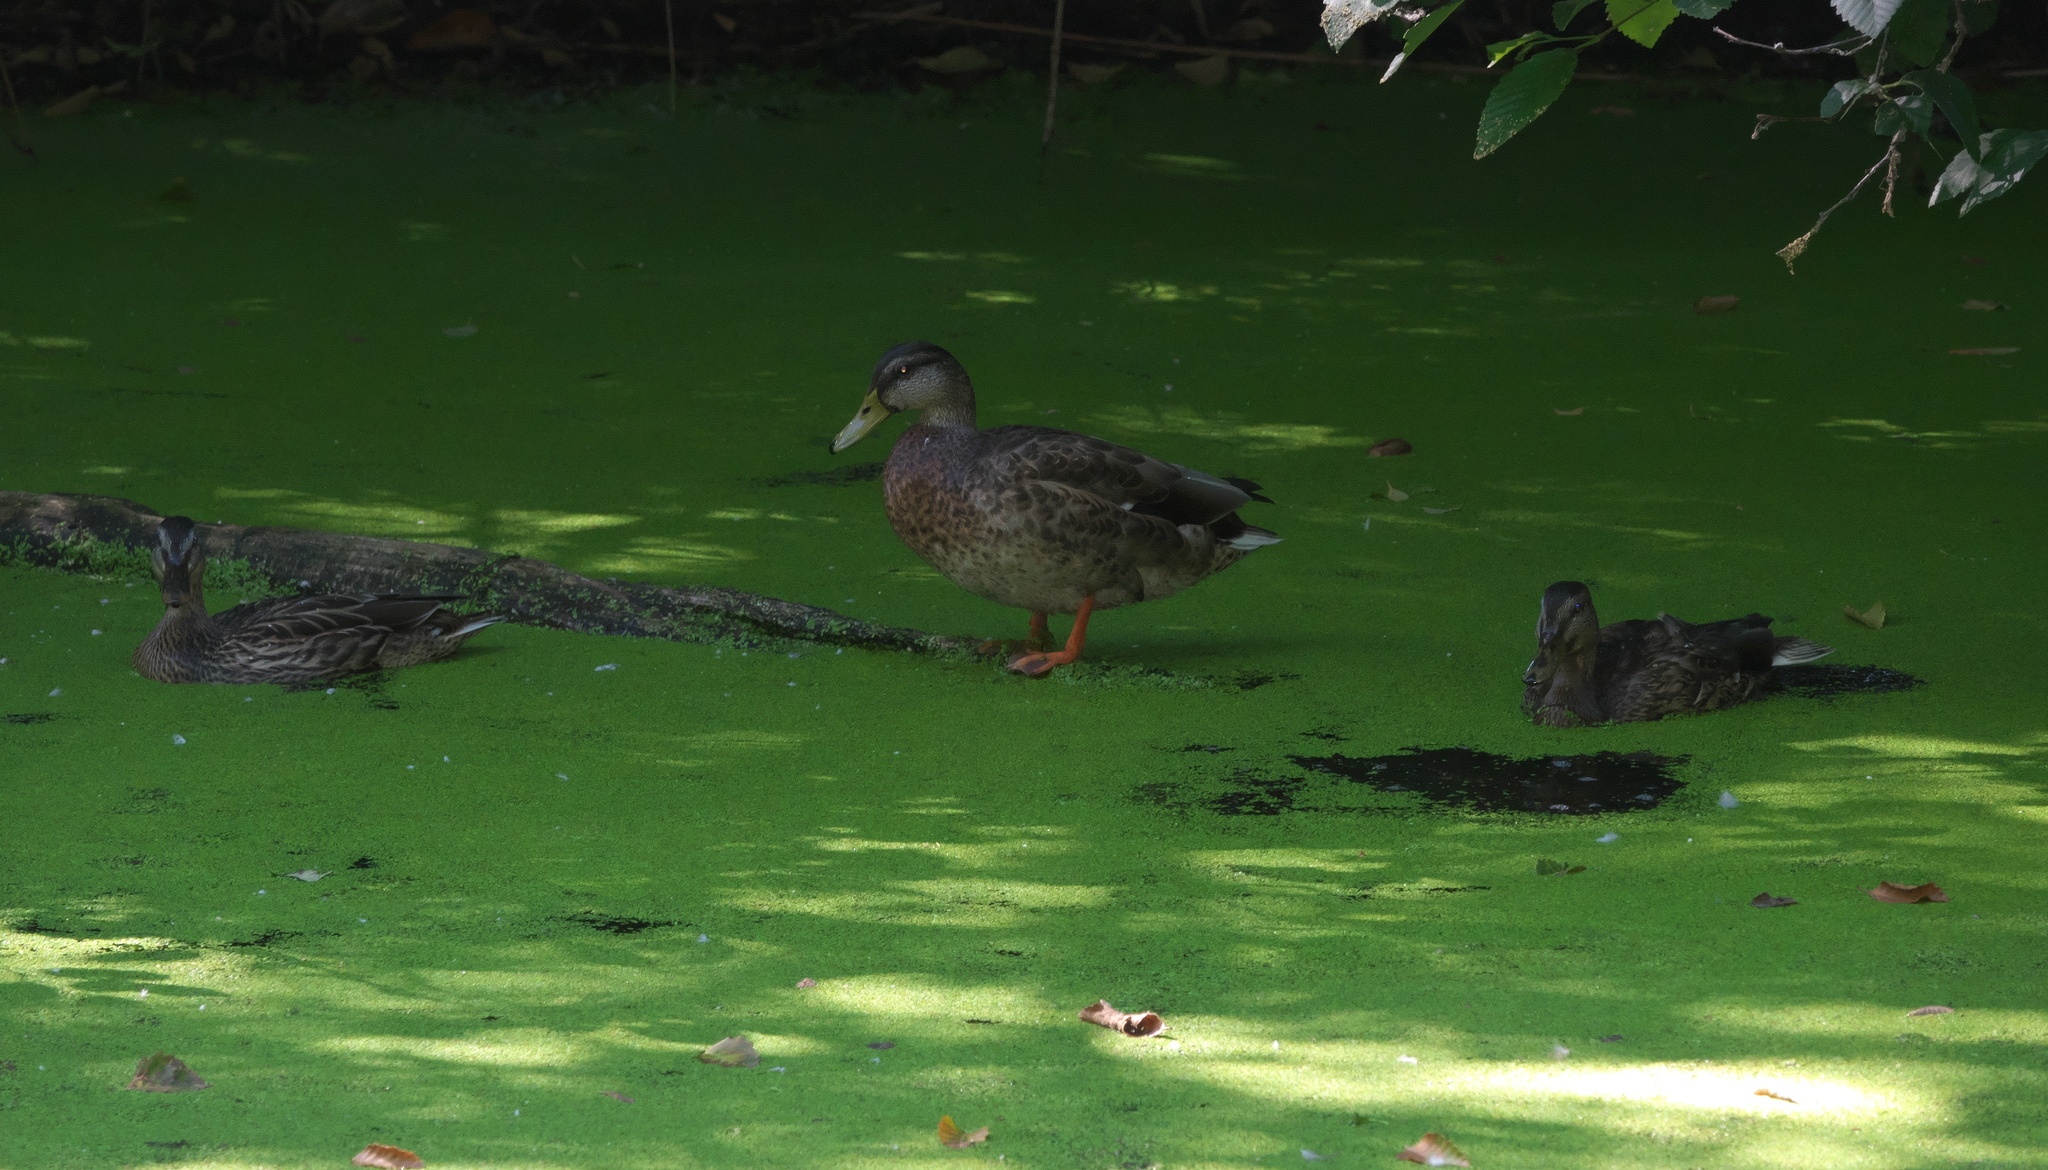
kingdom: Animalia
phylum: Chordata
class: Aves
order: Anseriformes
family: Anatidae
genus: Anas
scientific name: Anas platyrhynchos
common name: Mallard
